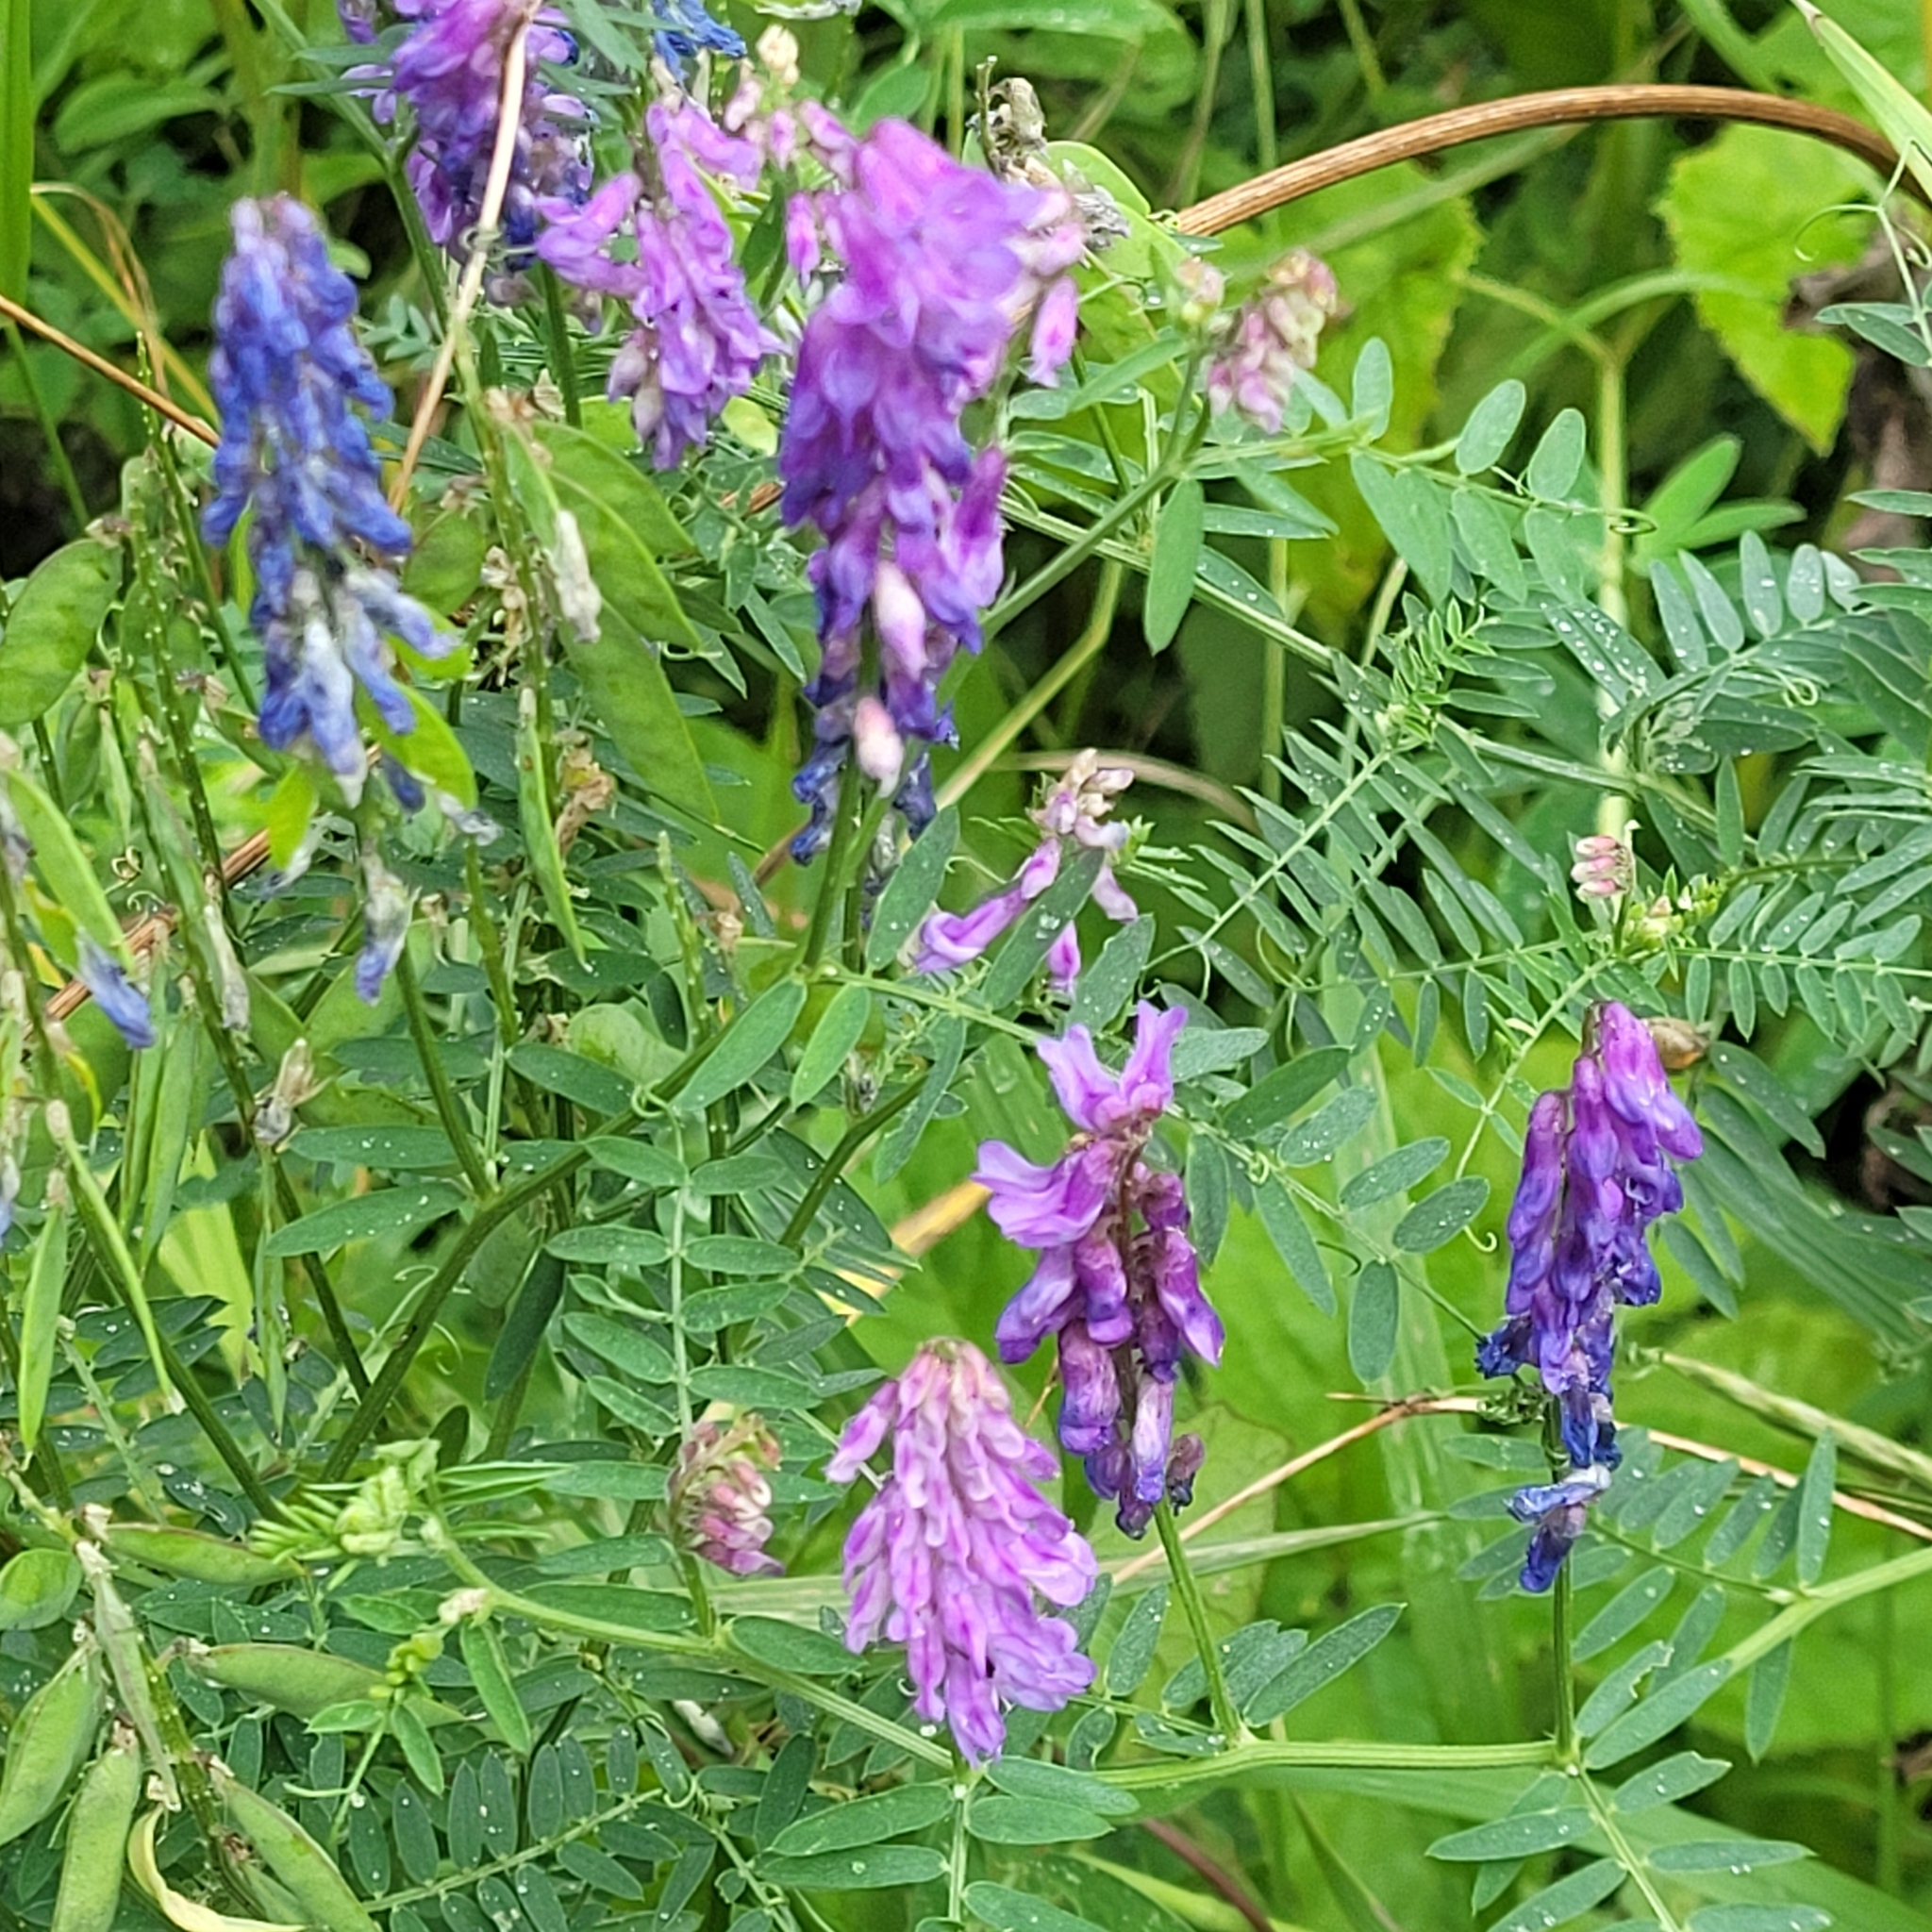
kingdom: Plantae
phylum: Tracheophyta
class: Magnoliopsida
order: Fabales
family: Fabaceae
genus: Vicia
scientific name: Vicia cracca
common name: Bird vetch
